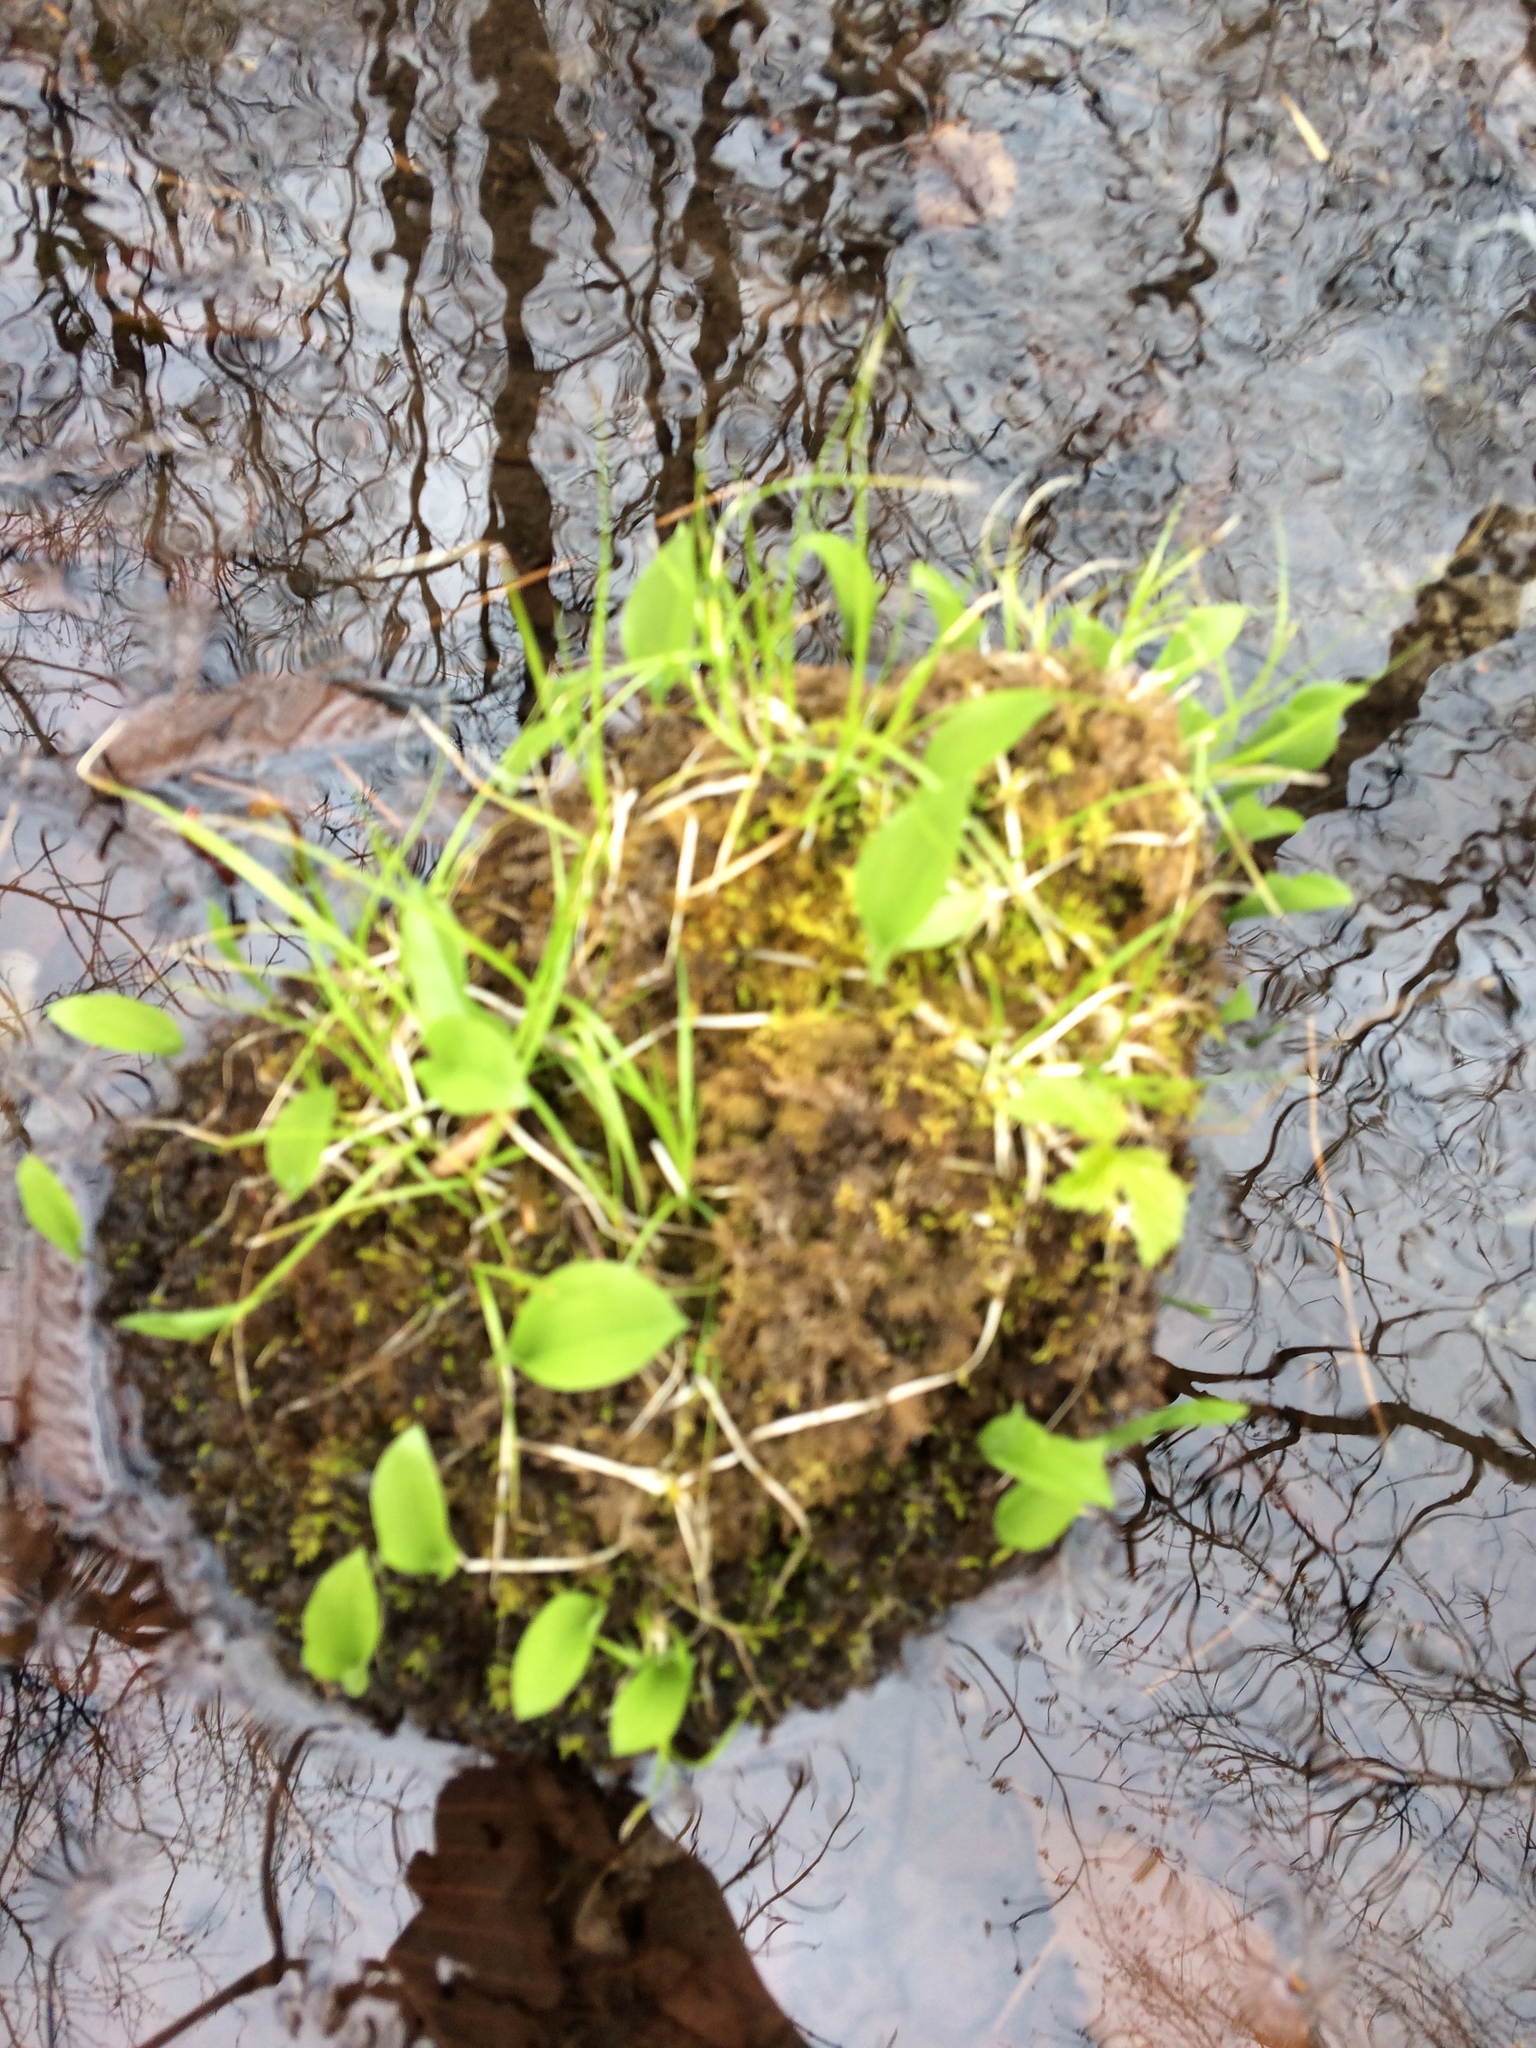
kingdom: Plantae
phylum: Tracheophyta
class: Liliopsida
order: Asparagales
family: Asparagaceae
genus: Maianthemum
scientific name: Maianthemum canadense
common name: False lily-of-the-valley
